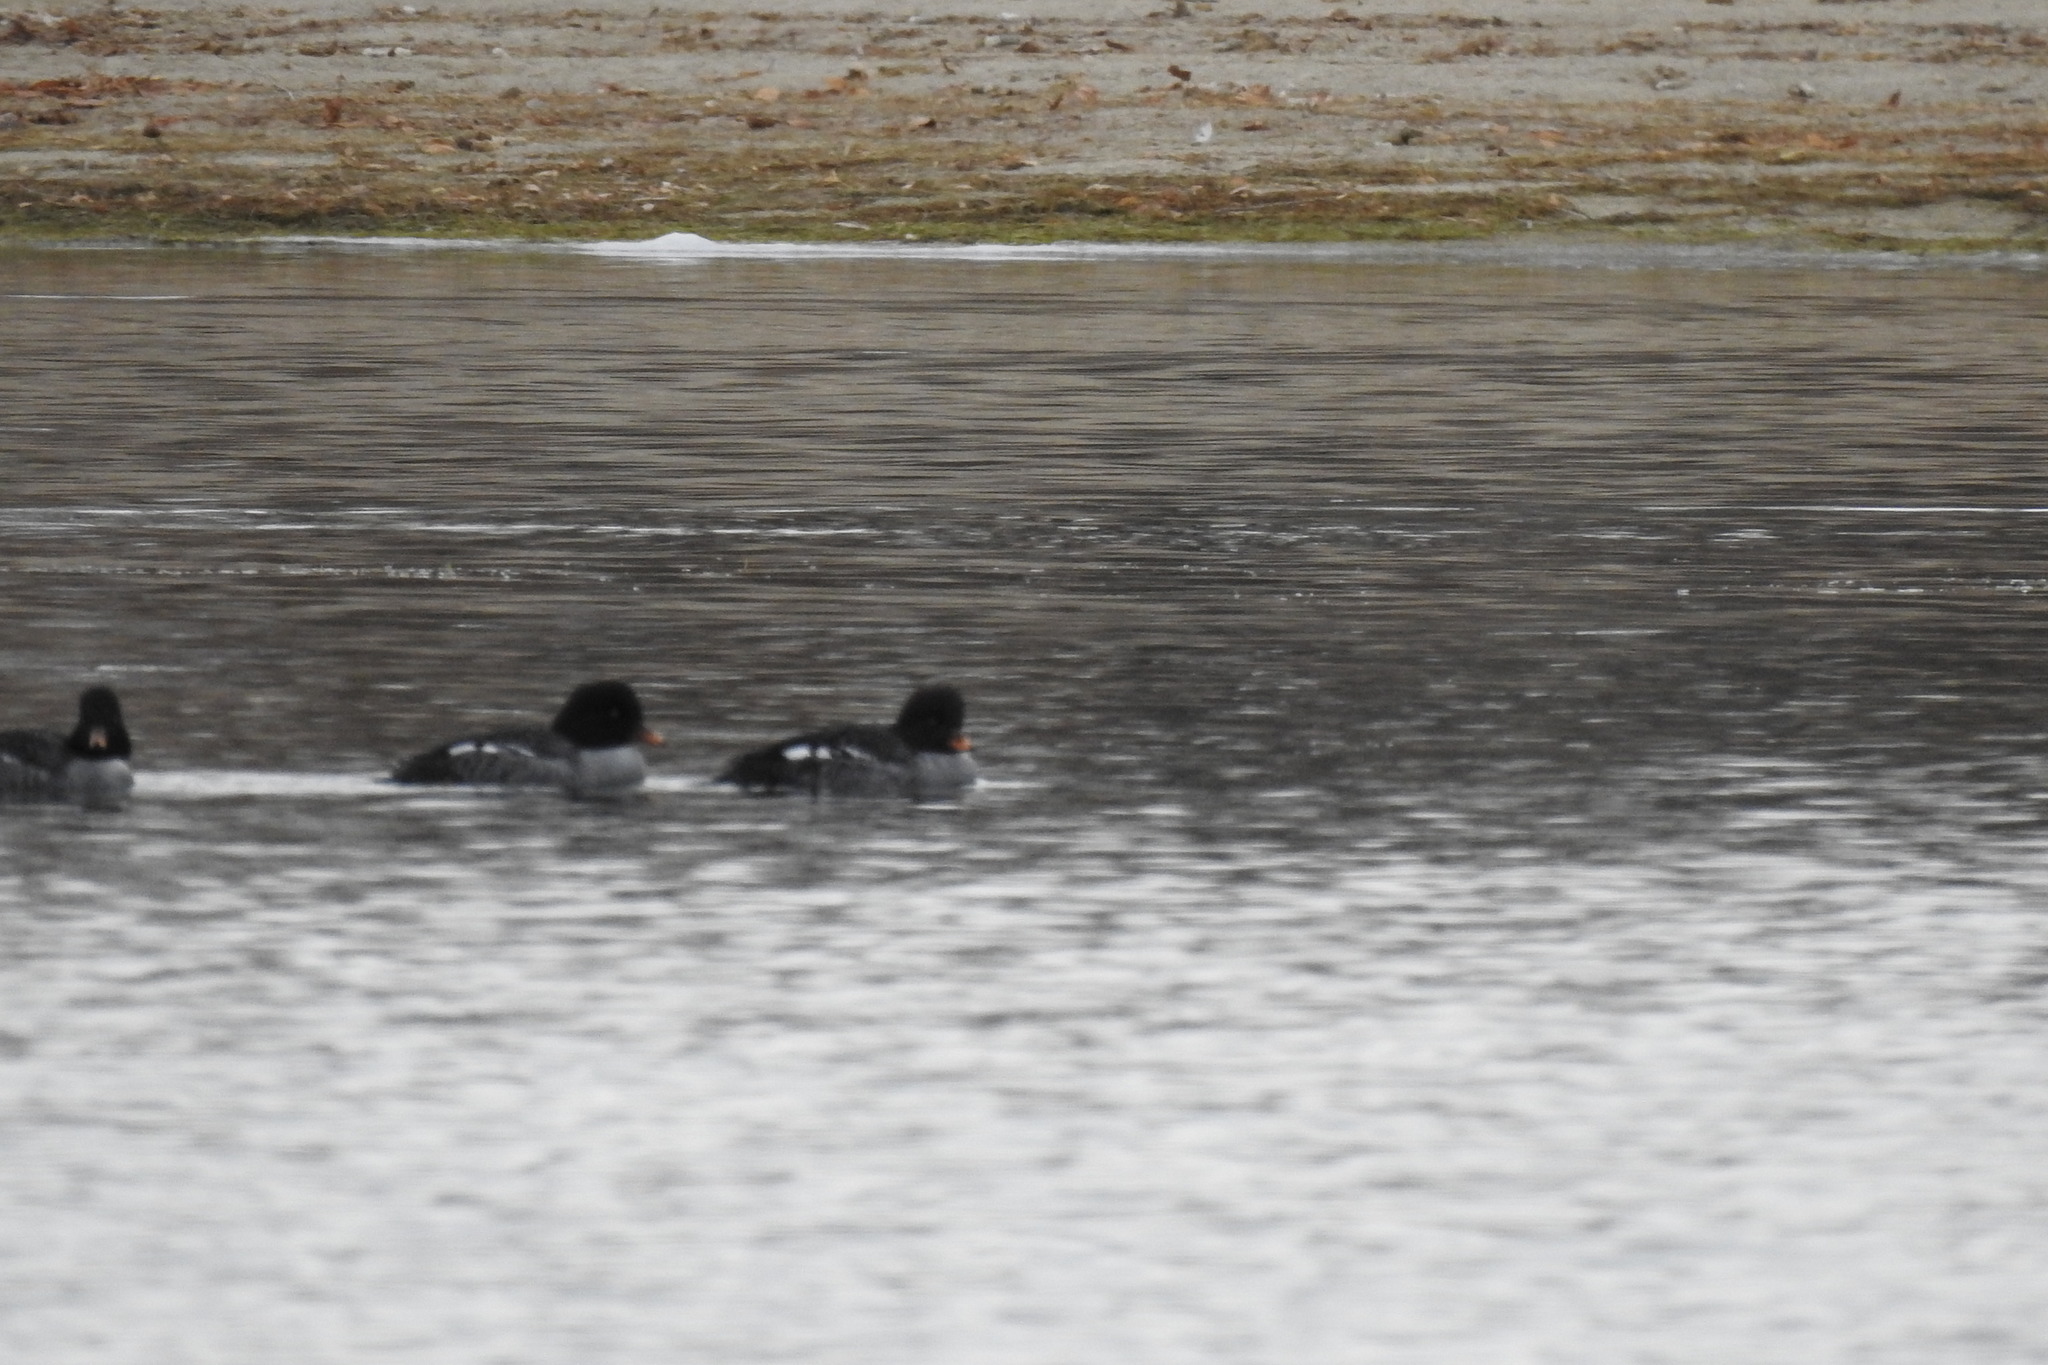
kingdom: Animalia
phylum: Chordata
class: Aves
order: Anseriformes
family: Anatidae
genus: Bucephala
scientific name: Bucephala islandica
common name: Barrow's goldeneye
